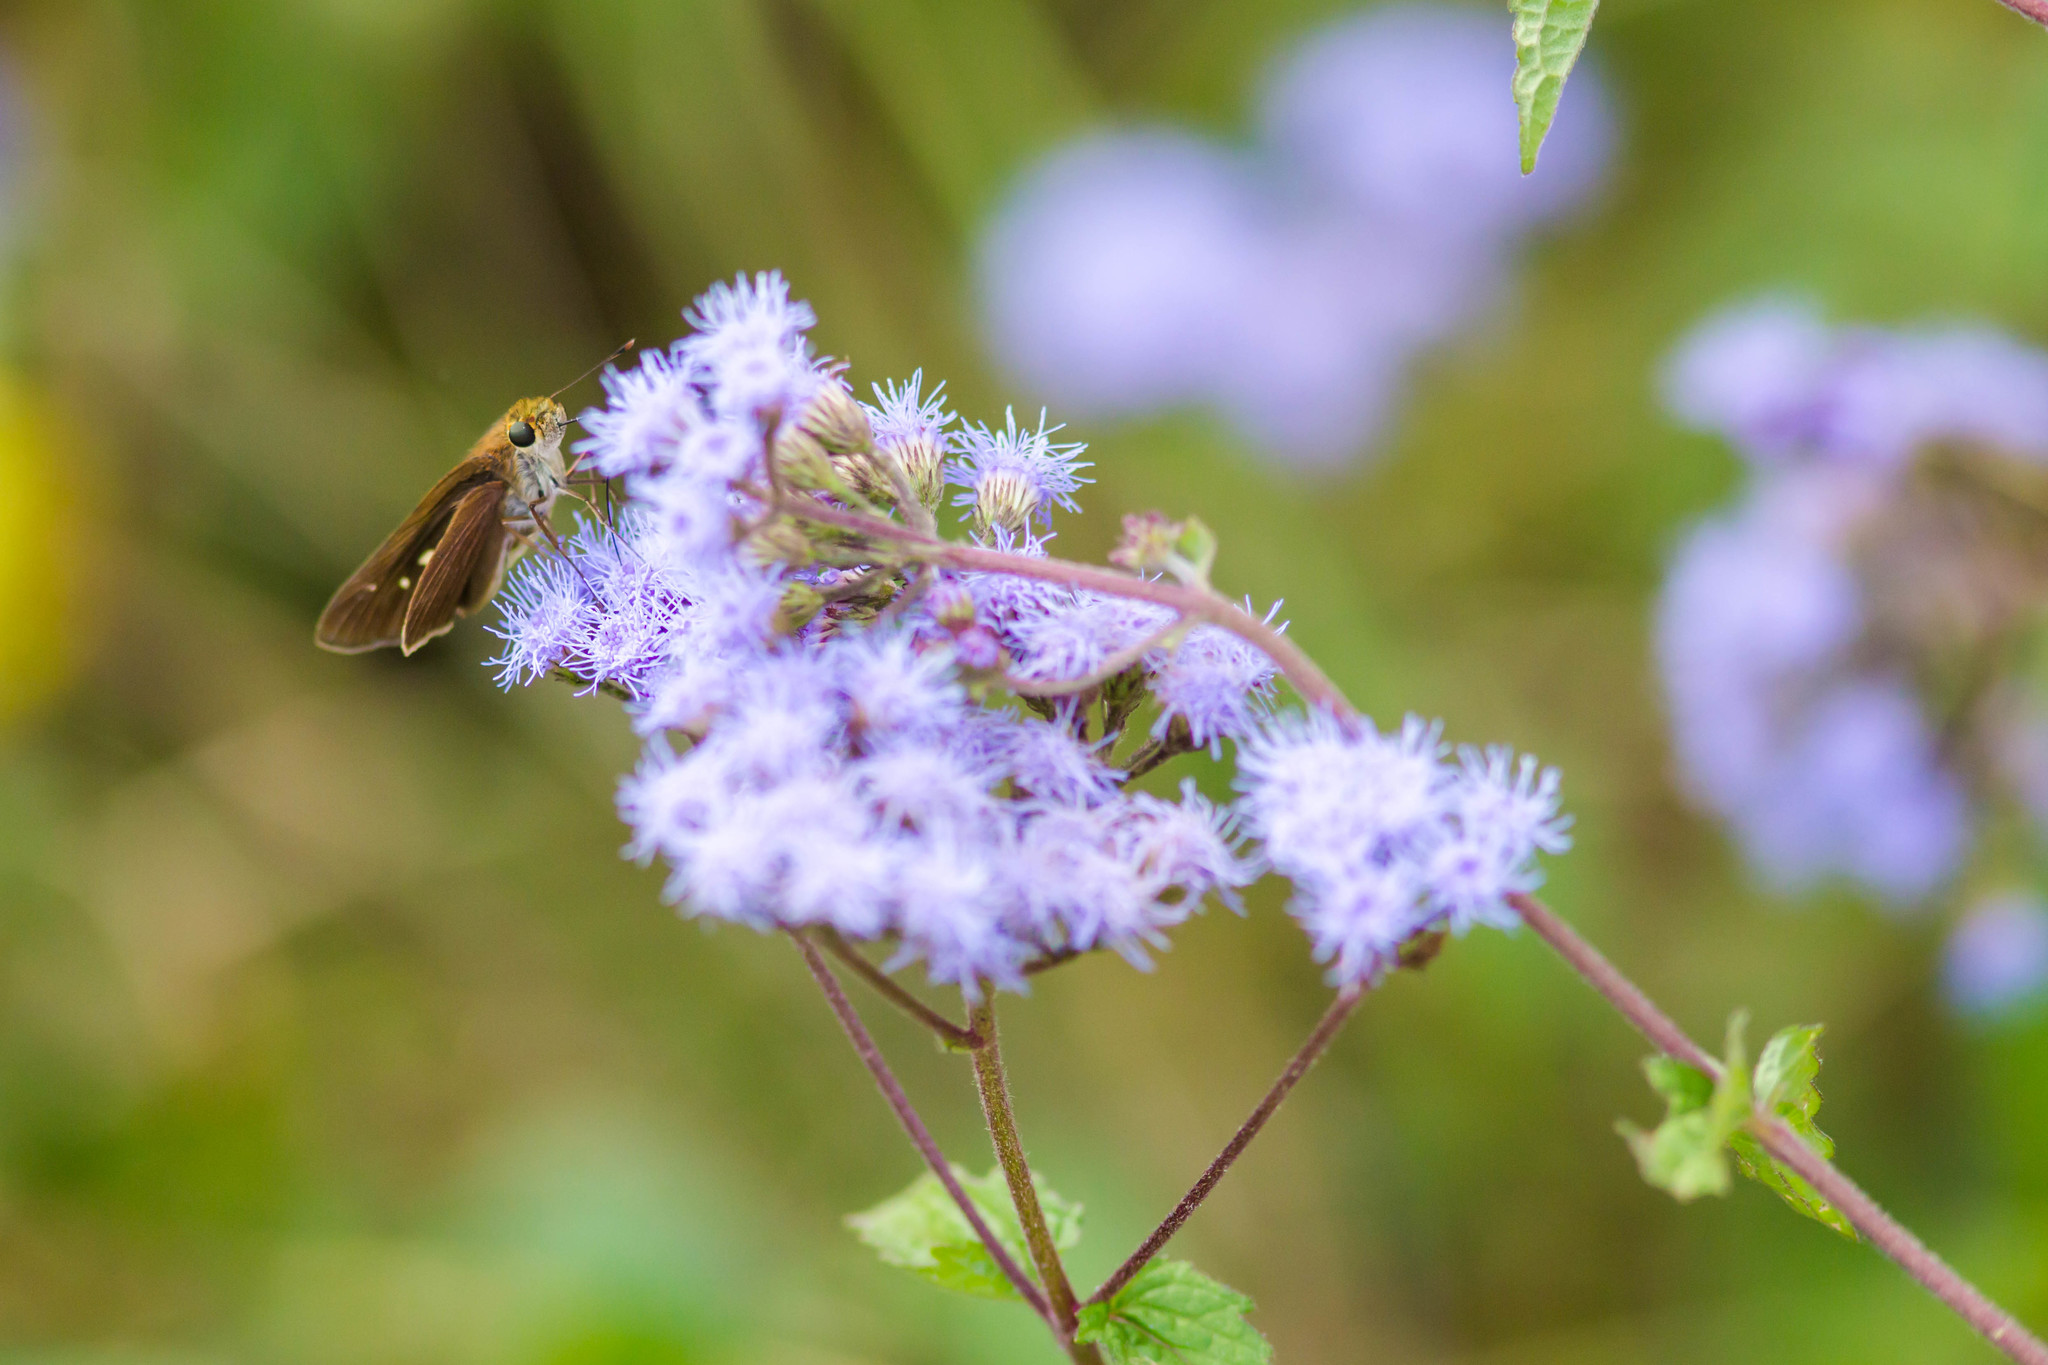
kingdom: Animalia
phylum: Arthropoda
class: Insecta
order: Lepidoptera
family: Hesperiidae
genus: Panoquina
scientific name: Panoquina ocola
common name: Ocola skipper
